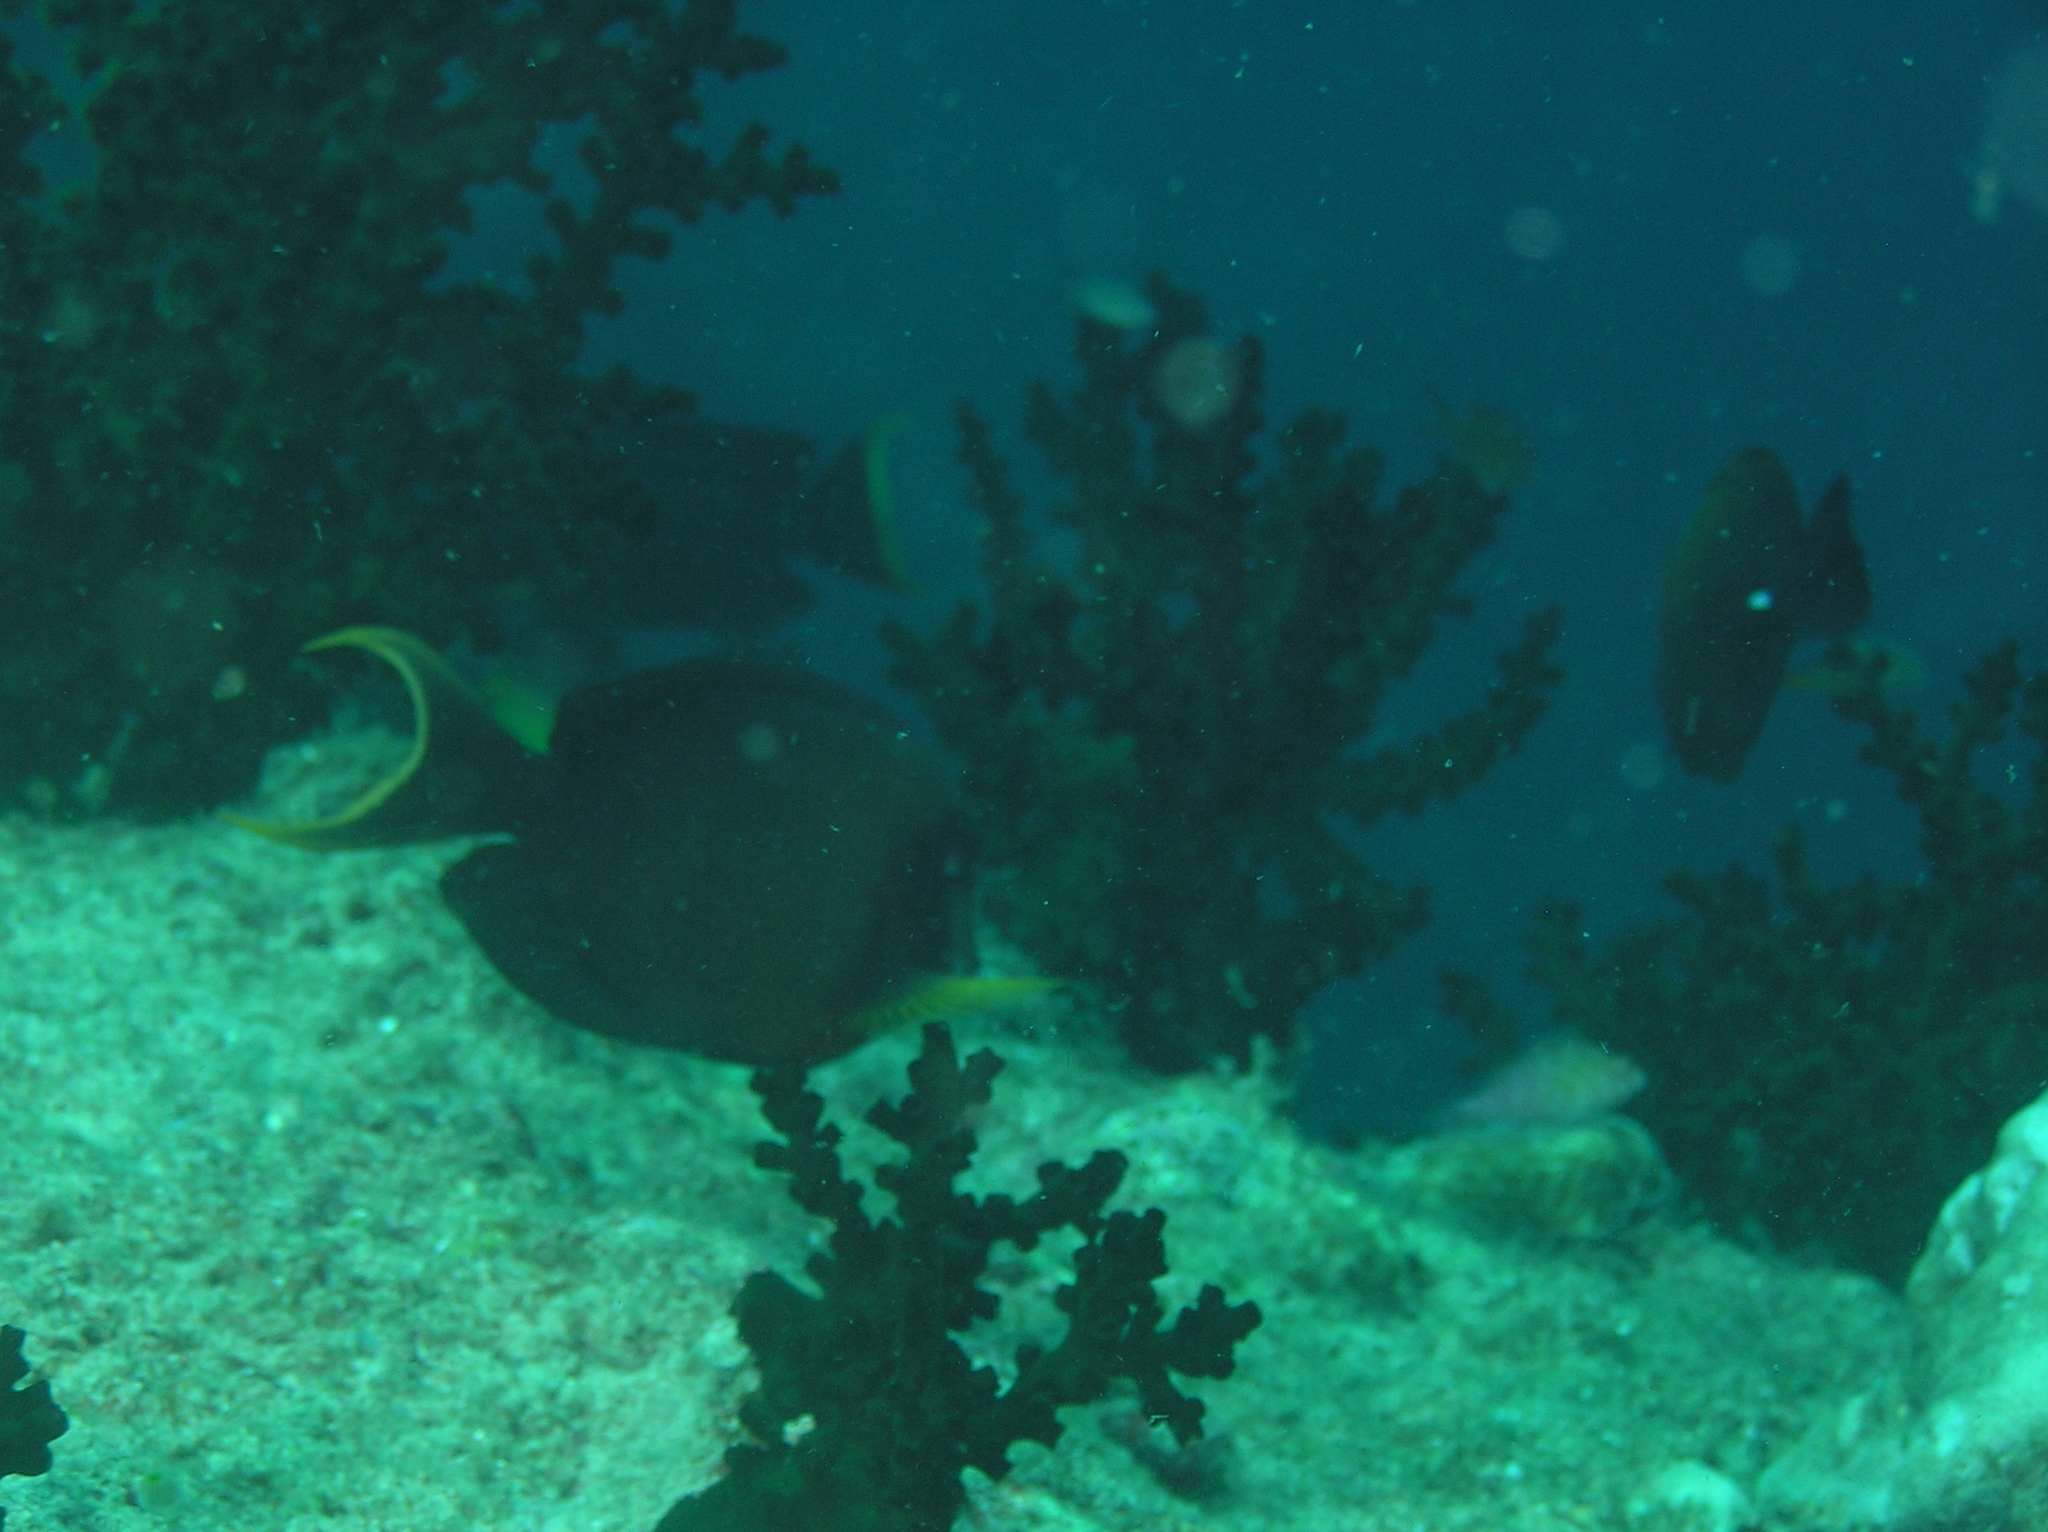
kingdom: Animalia
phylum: Chordata
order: Perciformes
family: Acanthuridae
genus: Acanthurus
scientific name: Acanthurus pyroferus
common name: Chocolate surgeonfish
